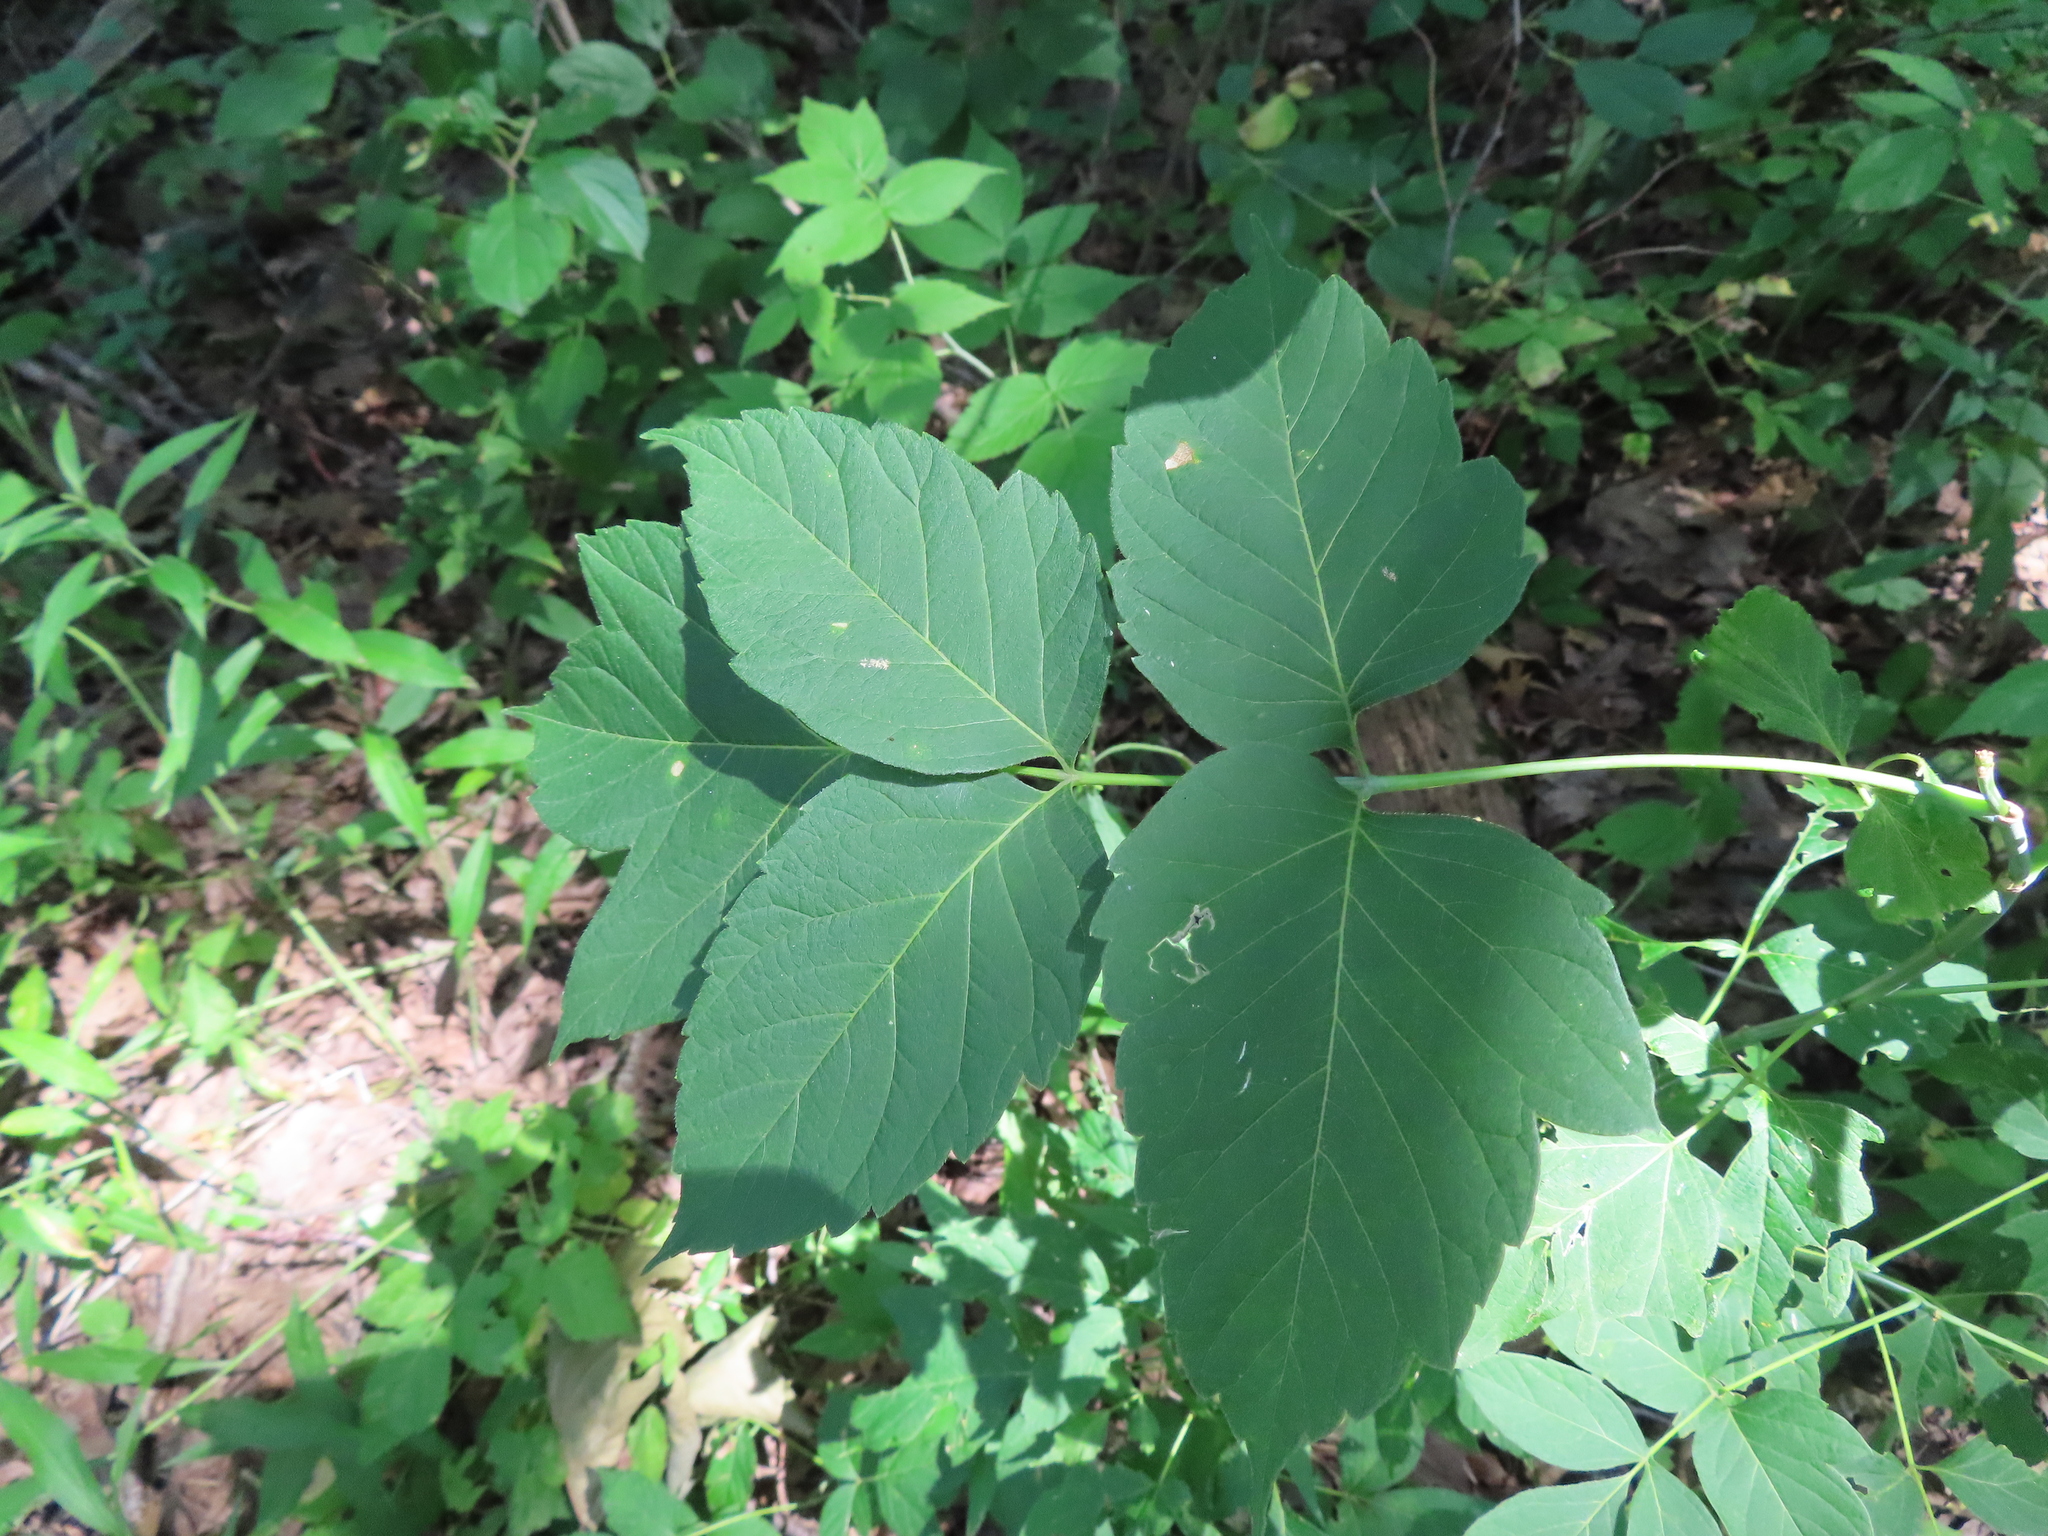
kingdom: Plantae
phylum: Tracheophyta
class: Magnoliopsida
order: Sapindales
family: Sapindaceae
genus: Acer
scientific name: Acer negundo
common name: Ashleaf maple
